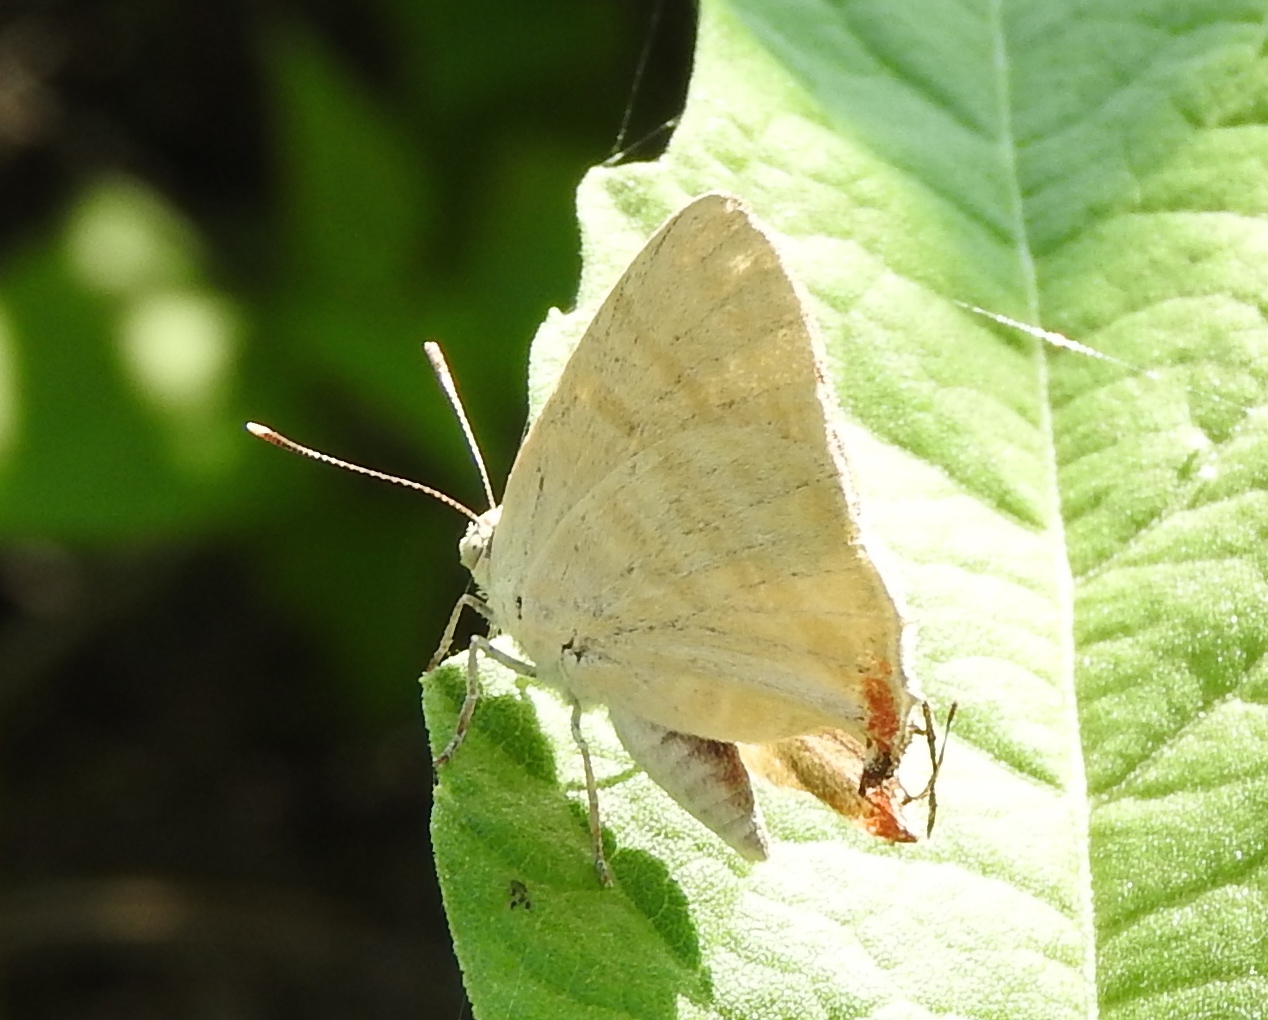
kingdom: Animalia
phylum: Arthropoda
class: Insecta
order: Lepidoptera
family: Lycaenidae
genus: Dolymorpha
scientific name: Dolymorpha jada
